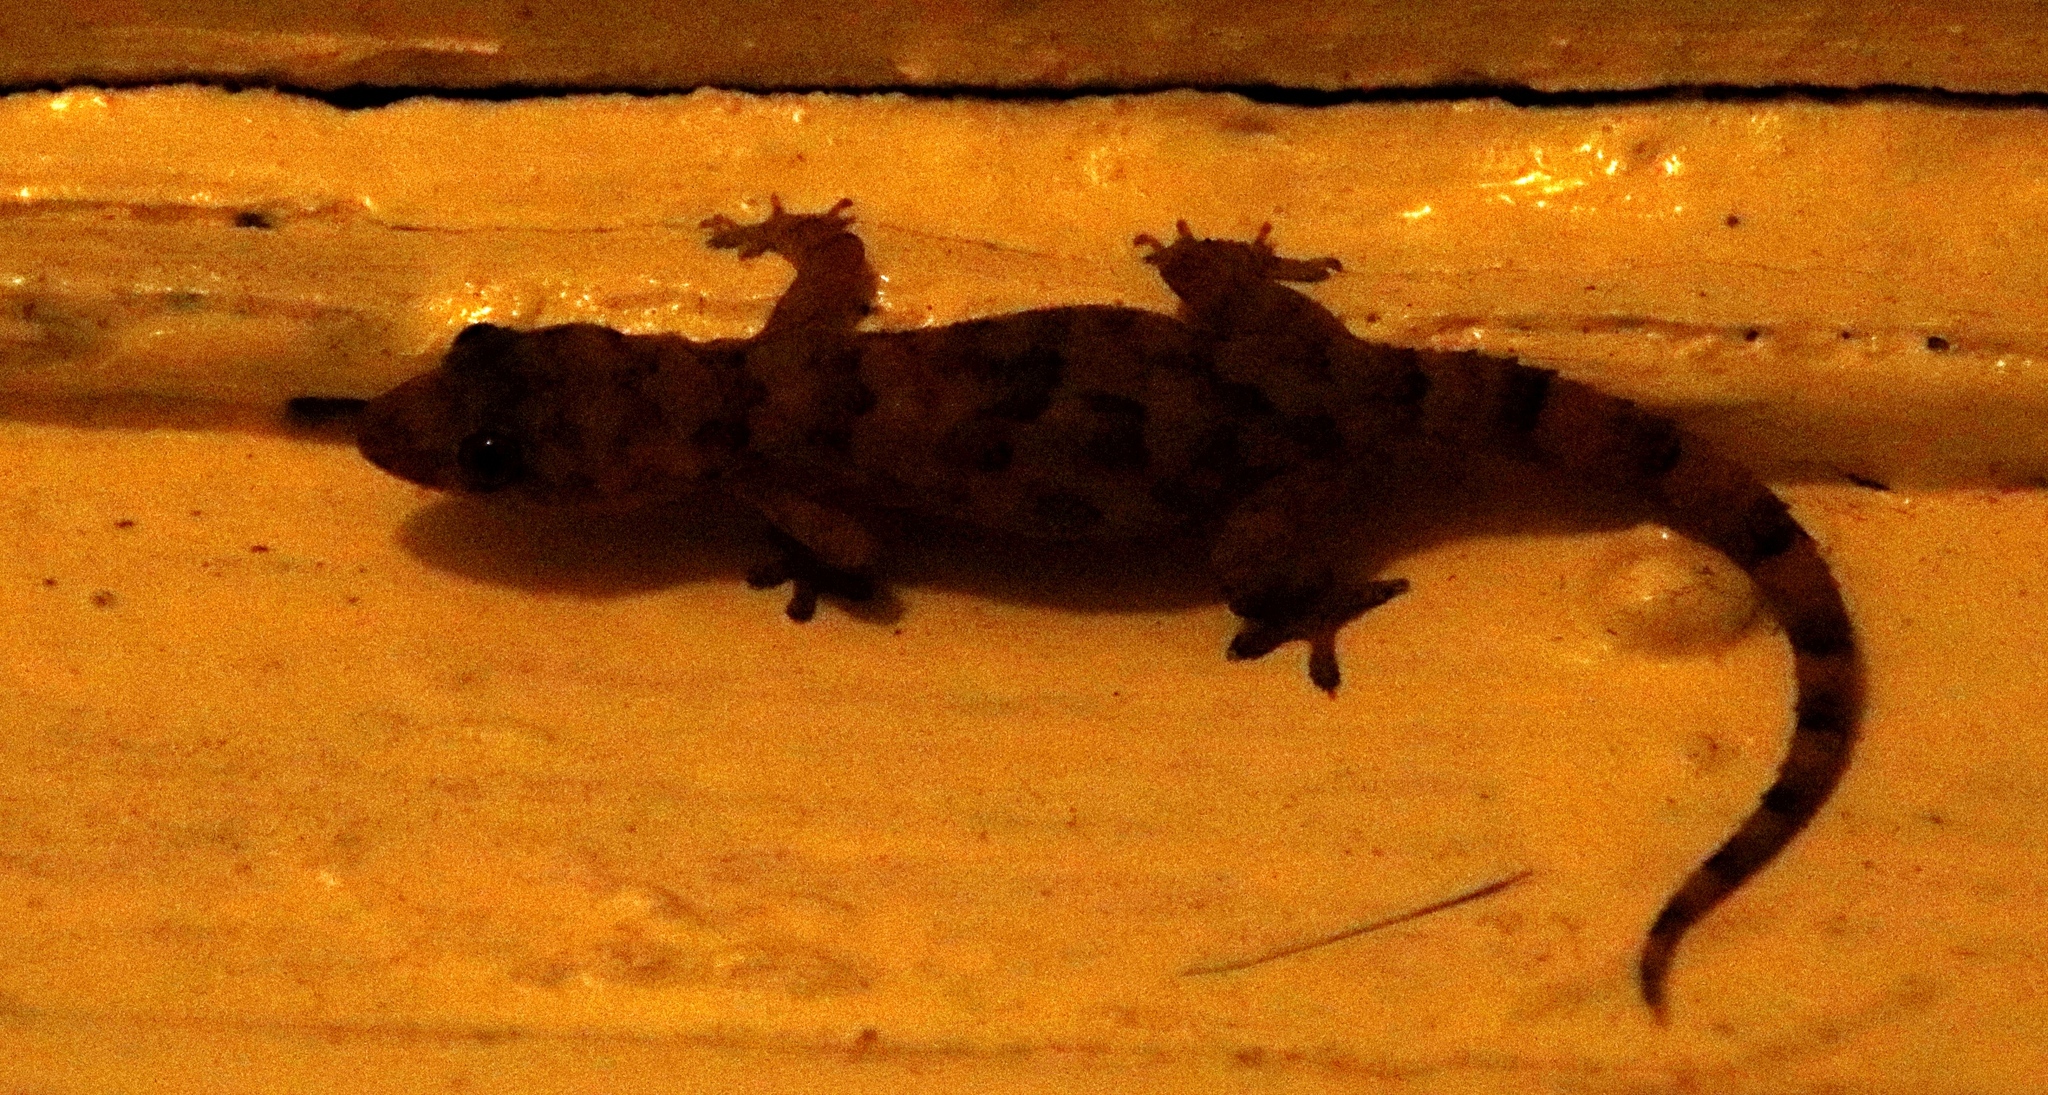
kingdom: Animalia
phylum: Chordata
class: Squamata
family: Gekkonidae
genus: Hemidactylus
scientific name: Hemidactylus mabouia
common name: House gecko
